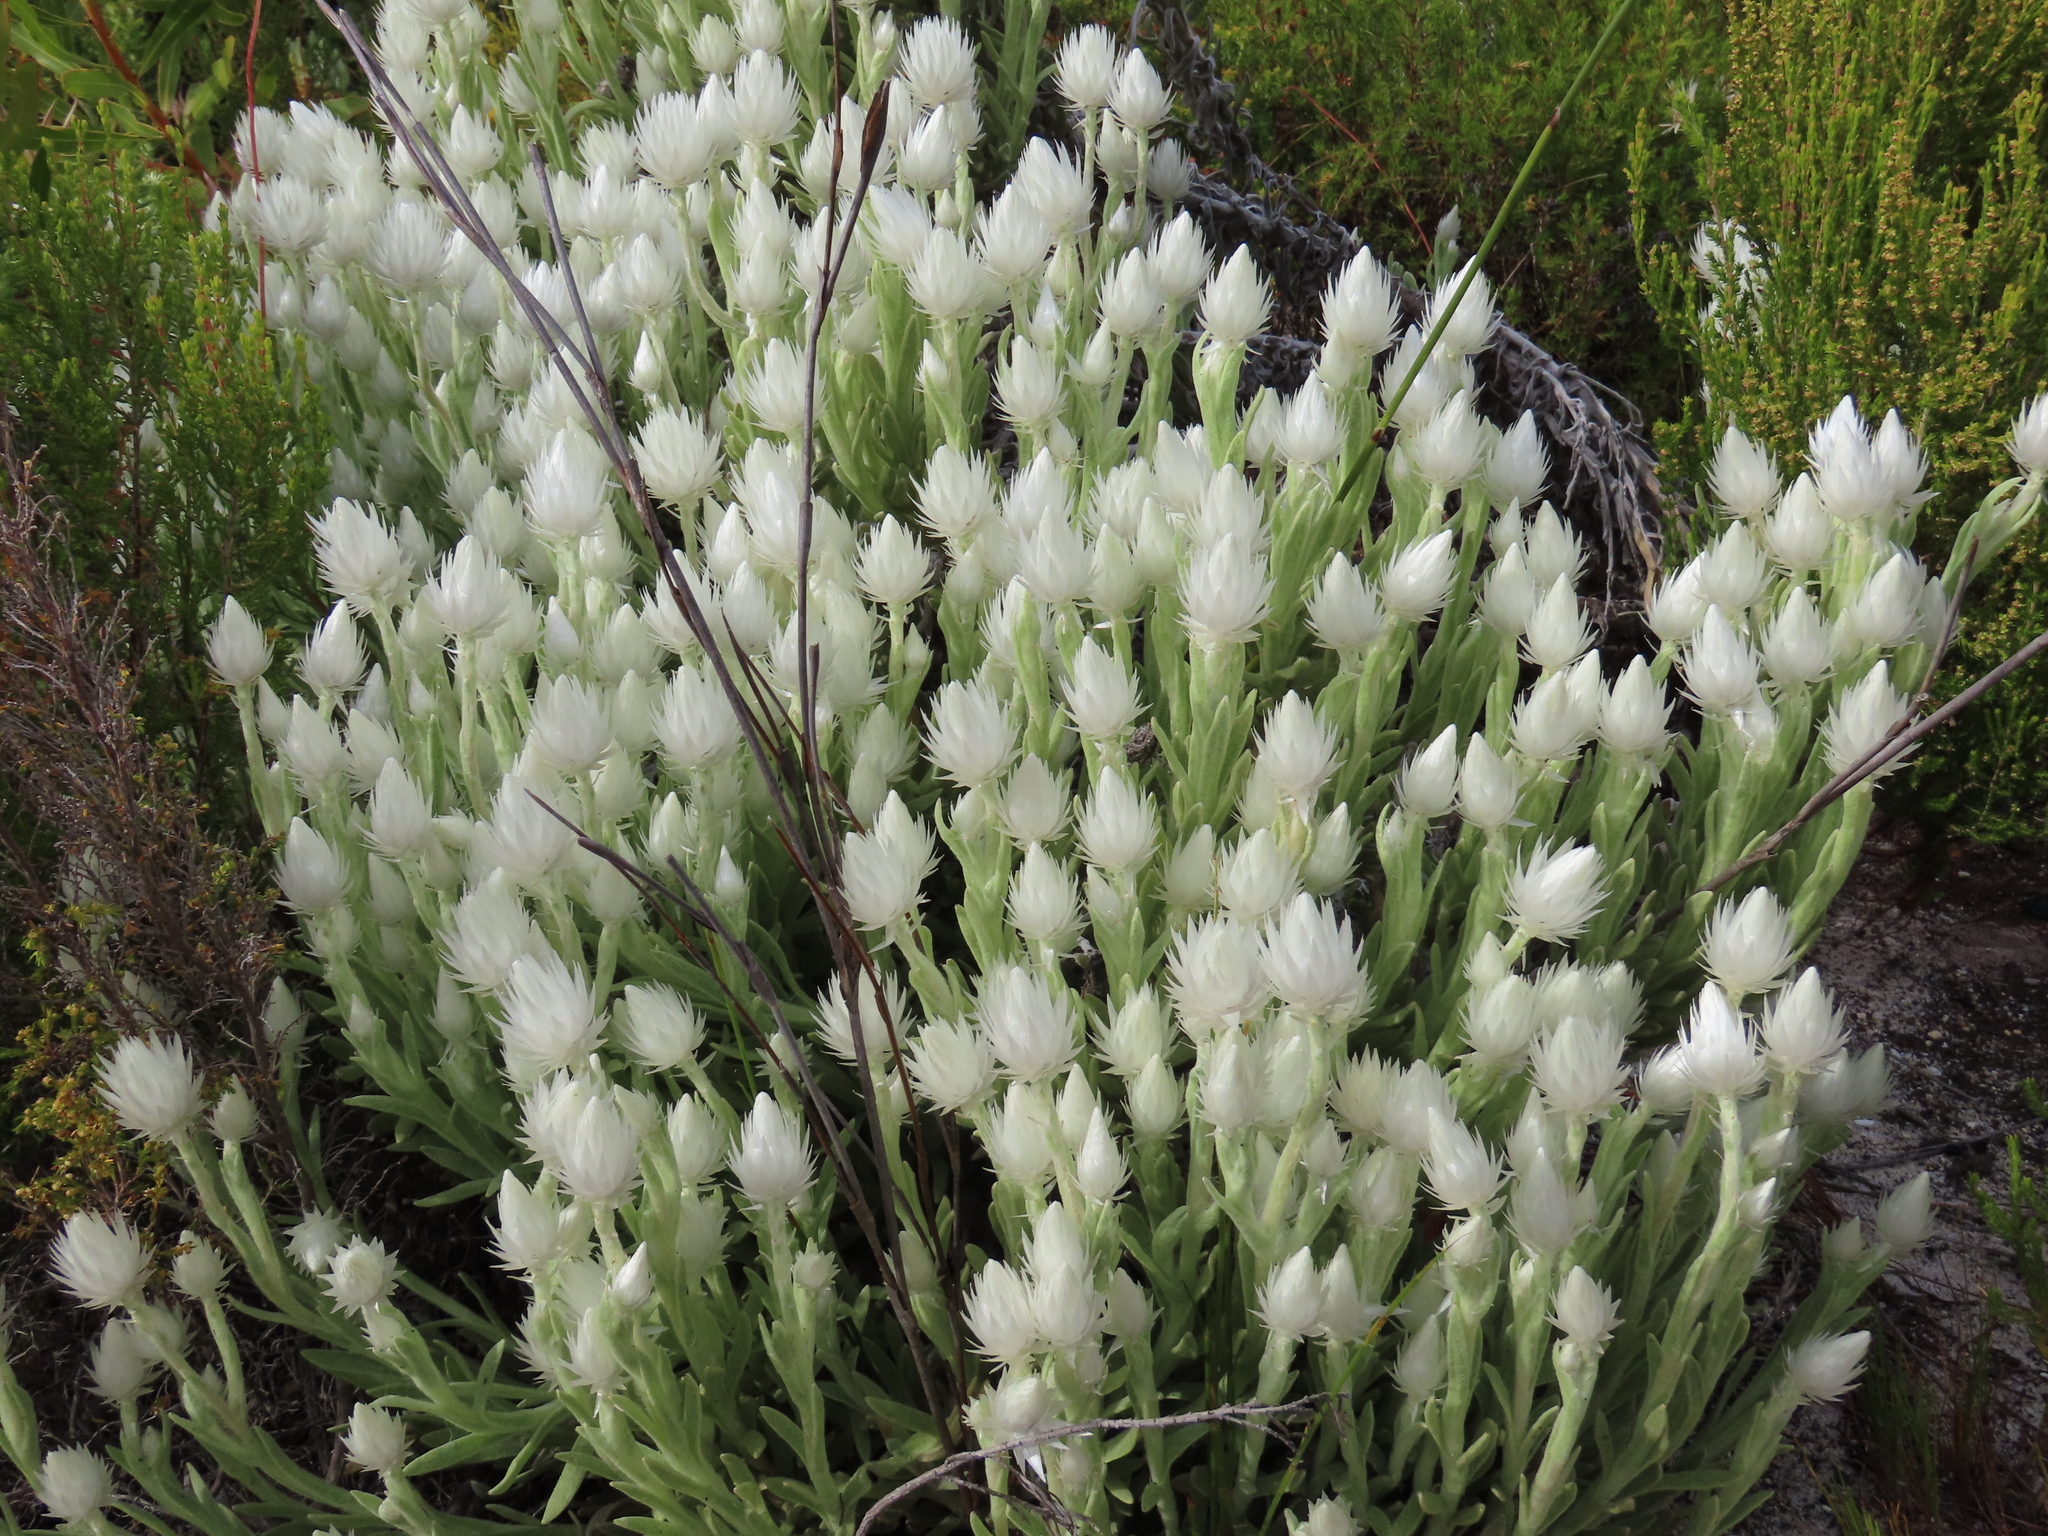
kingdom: Plantae
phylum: Tracheophyta
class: Magnoliopsida
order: Asterales
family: Asteraceae
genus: Syncarpha
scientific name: Syncarpha vestita
